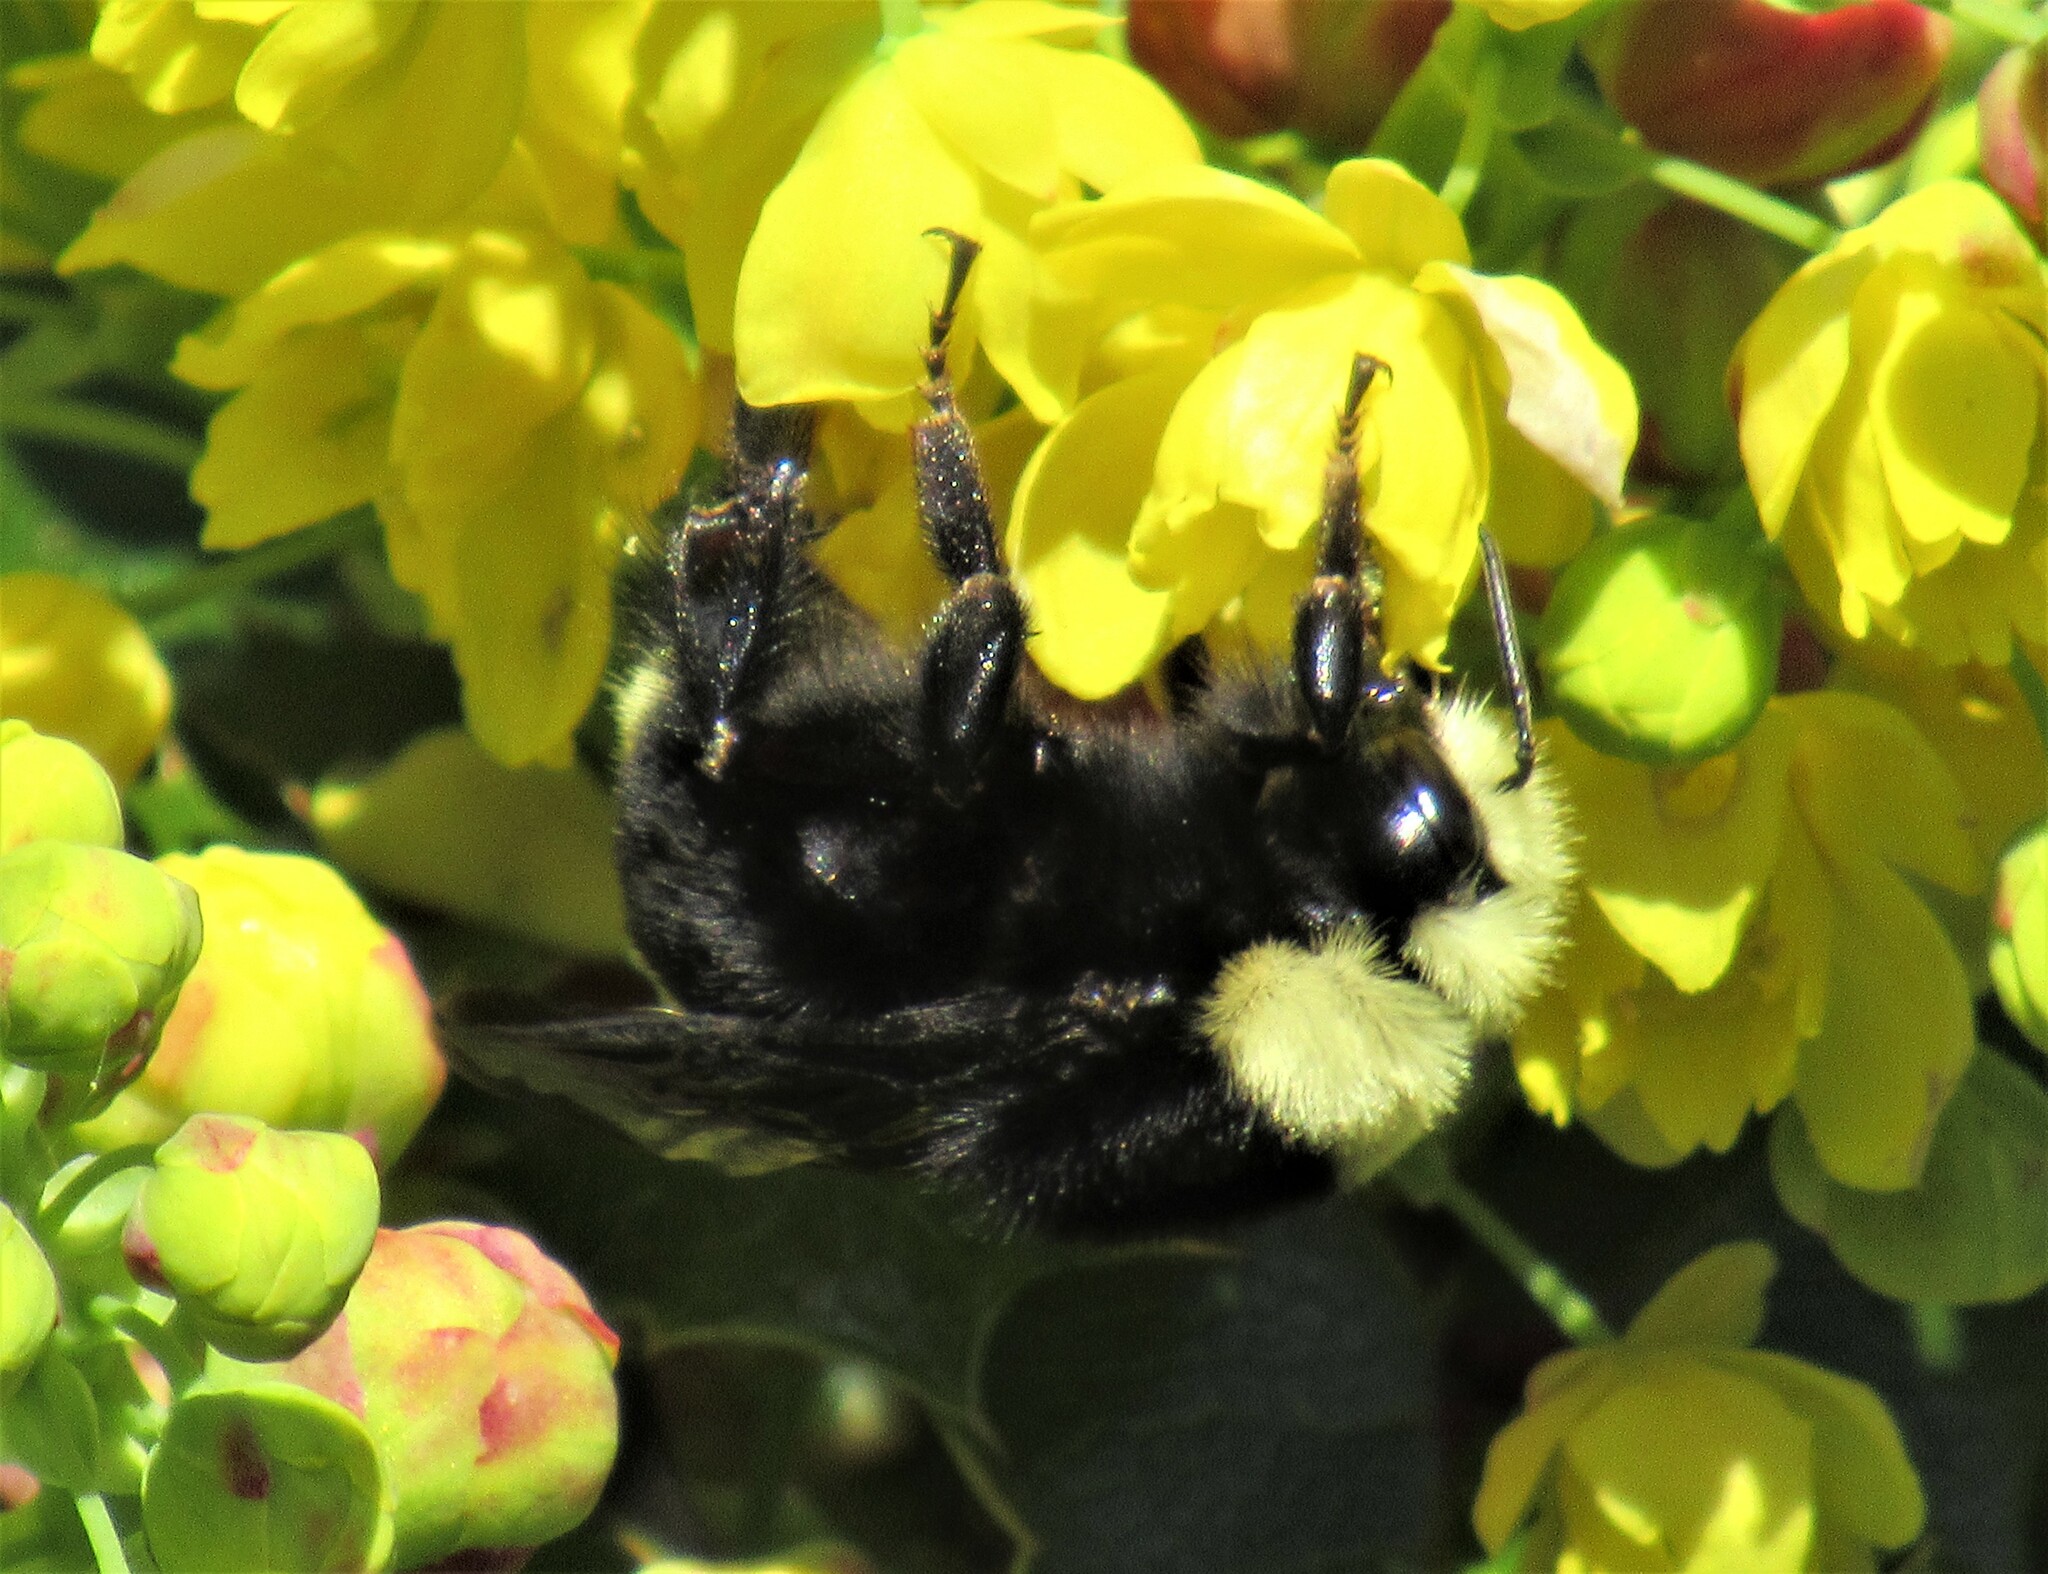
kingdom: Animalia
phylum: Arthropoda
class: Insecta
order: Hymenoptera
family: Apidae
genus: Bombus
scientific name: Bombus vosnesenskii
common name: Vosnesensky bumble bee
